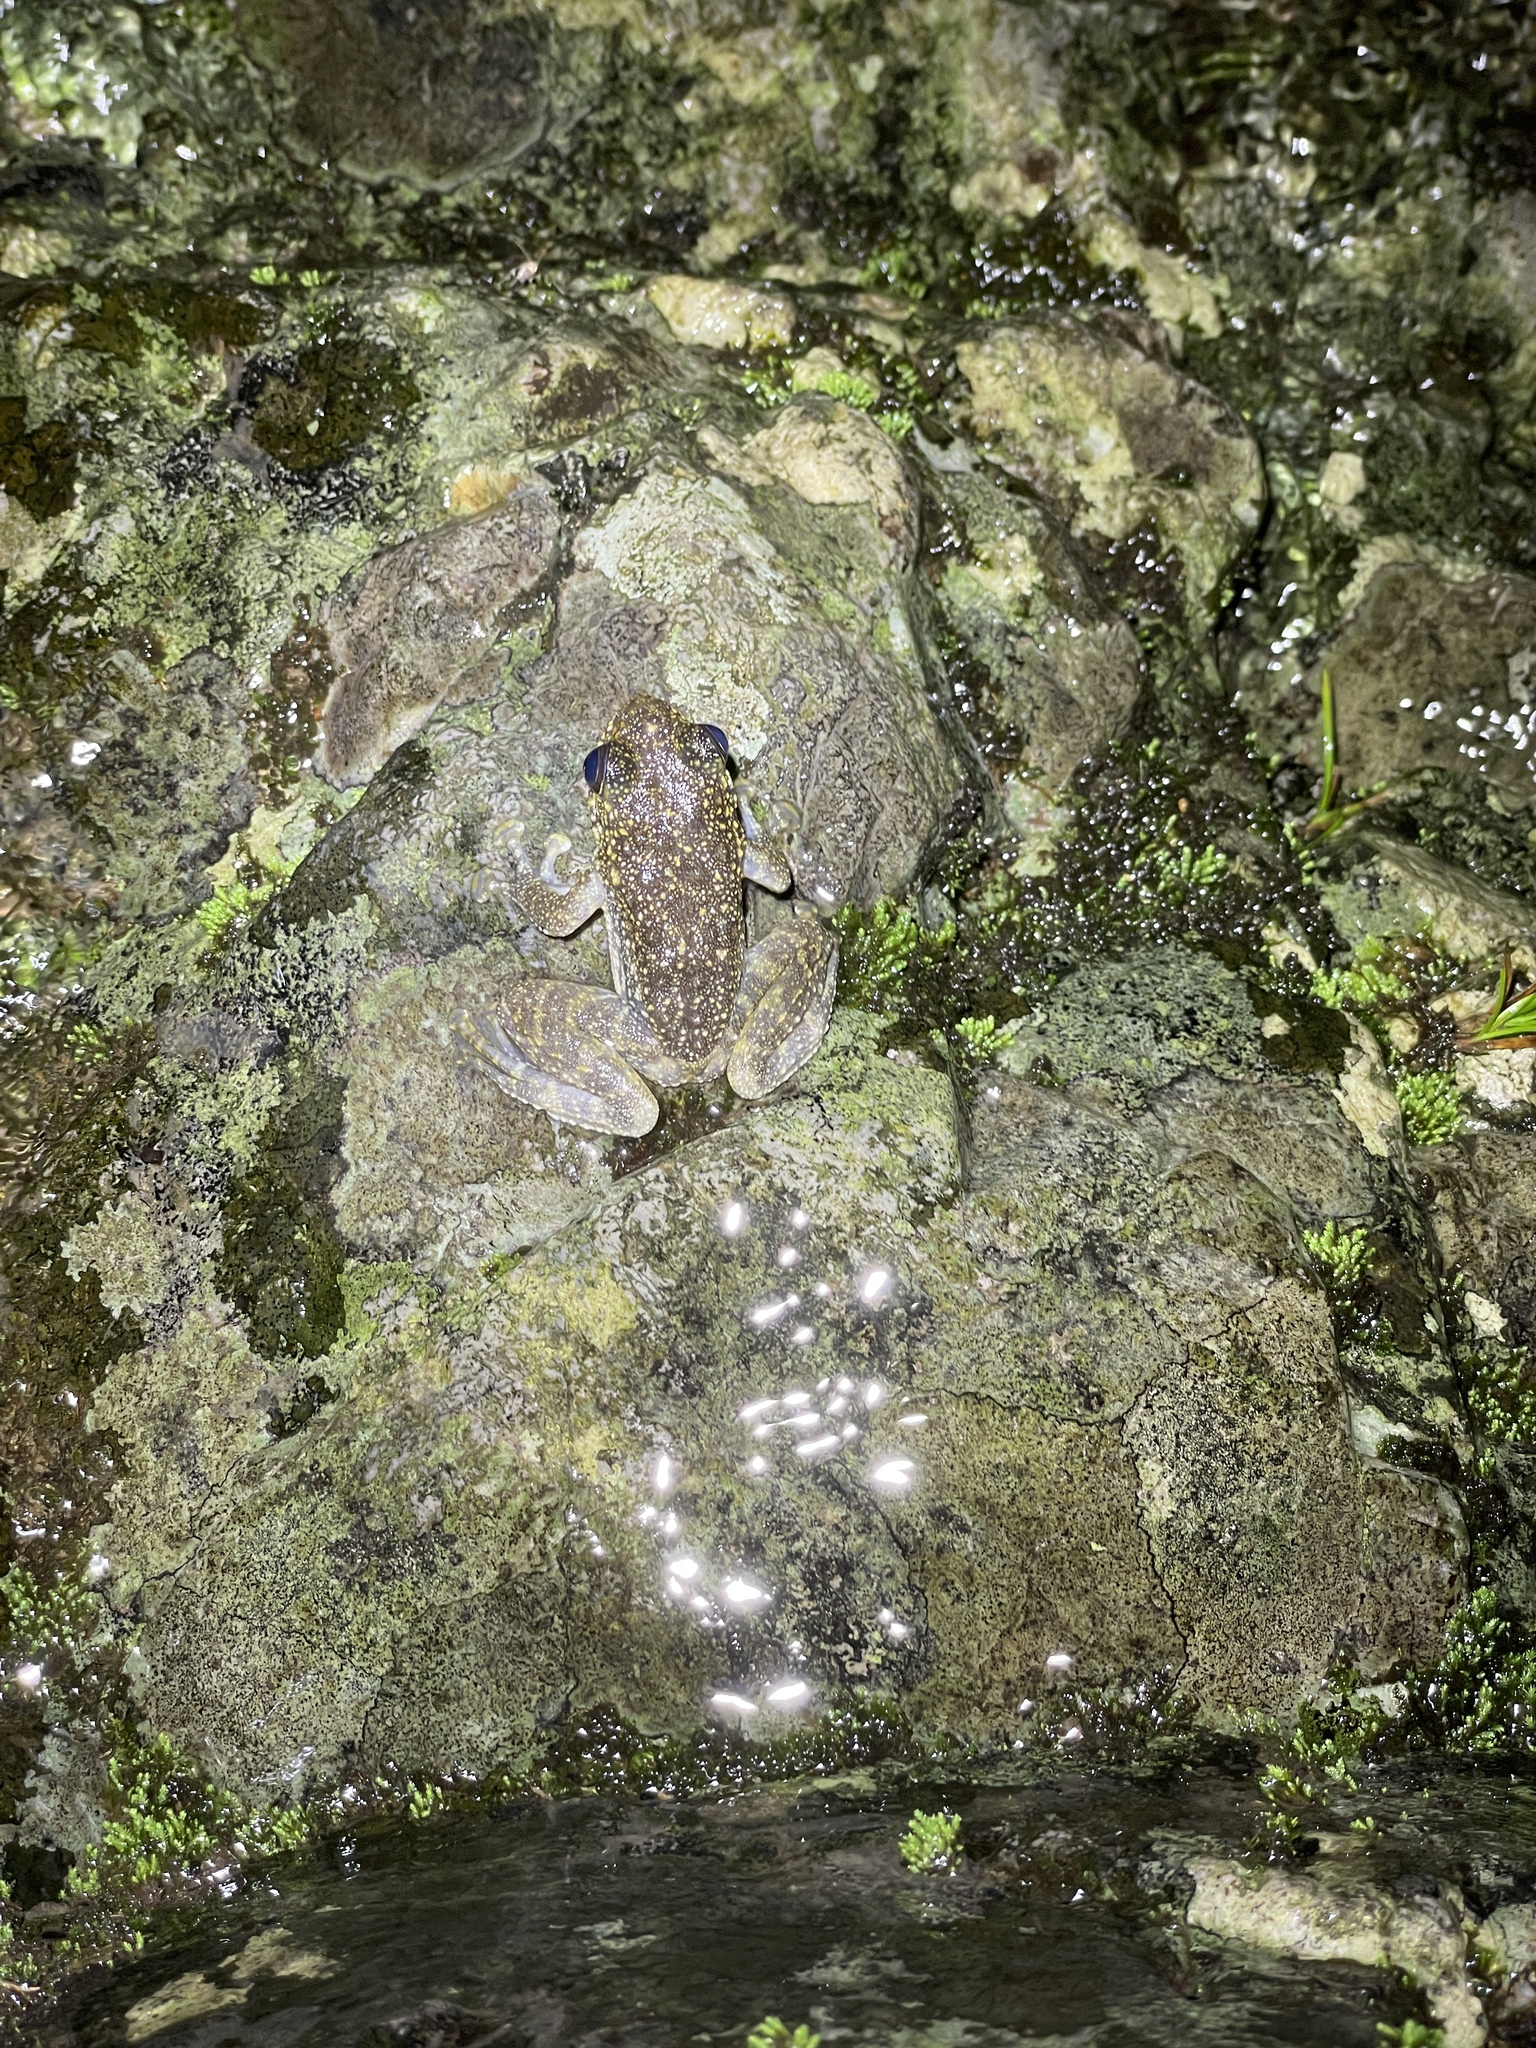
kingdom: Animalia
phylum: Chordata
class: Amphibia
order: Anura
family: Ranidae
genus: Amolops
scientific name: Amolops hongkongensis
